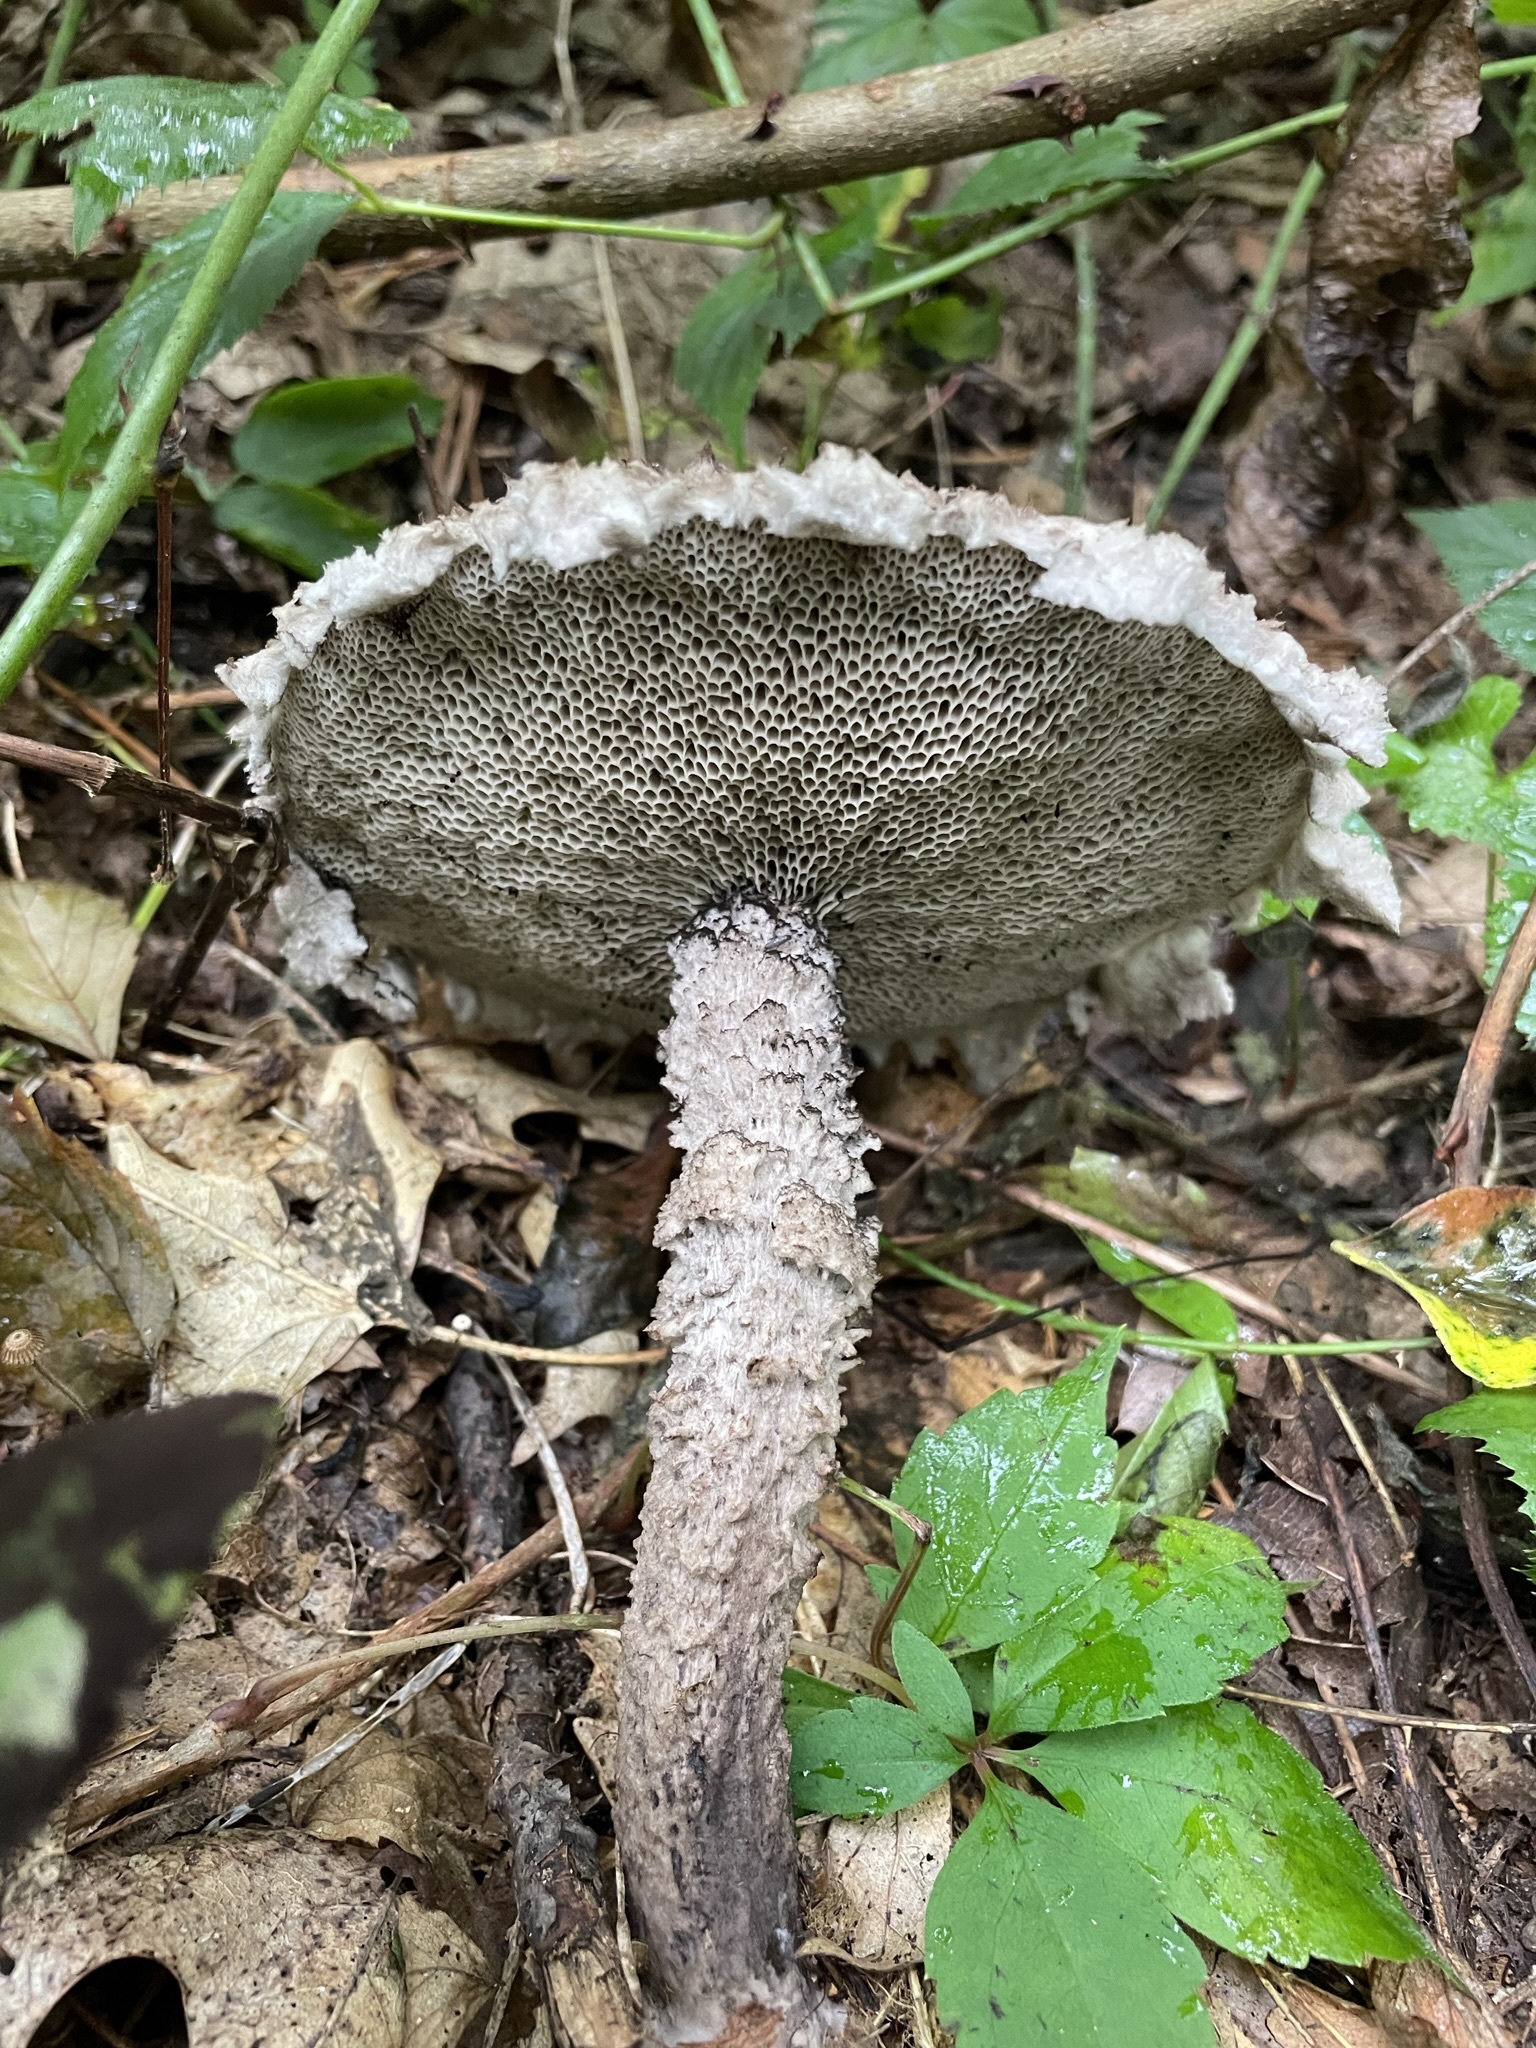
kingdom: Fungi
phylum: Basidiomycota
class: Agaricomycetes
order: Boletales
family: Boletaceae
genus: Strobilomyces
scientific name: Strobilomyces strobilaceus
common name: Old man of the woods
